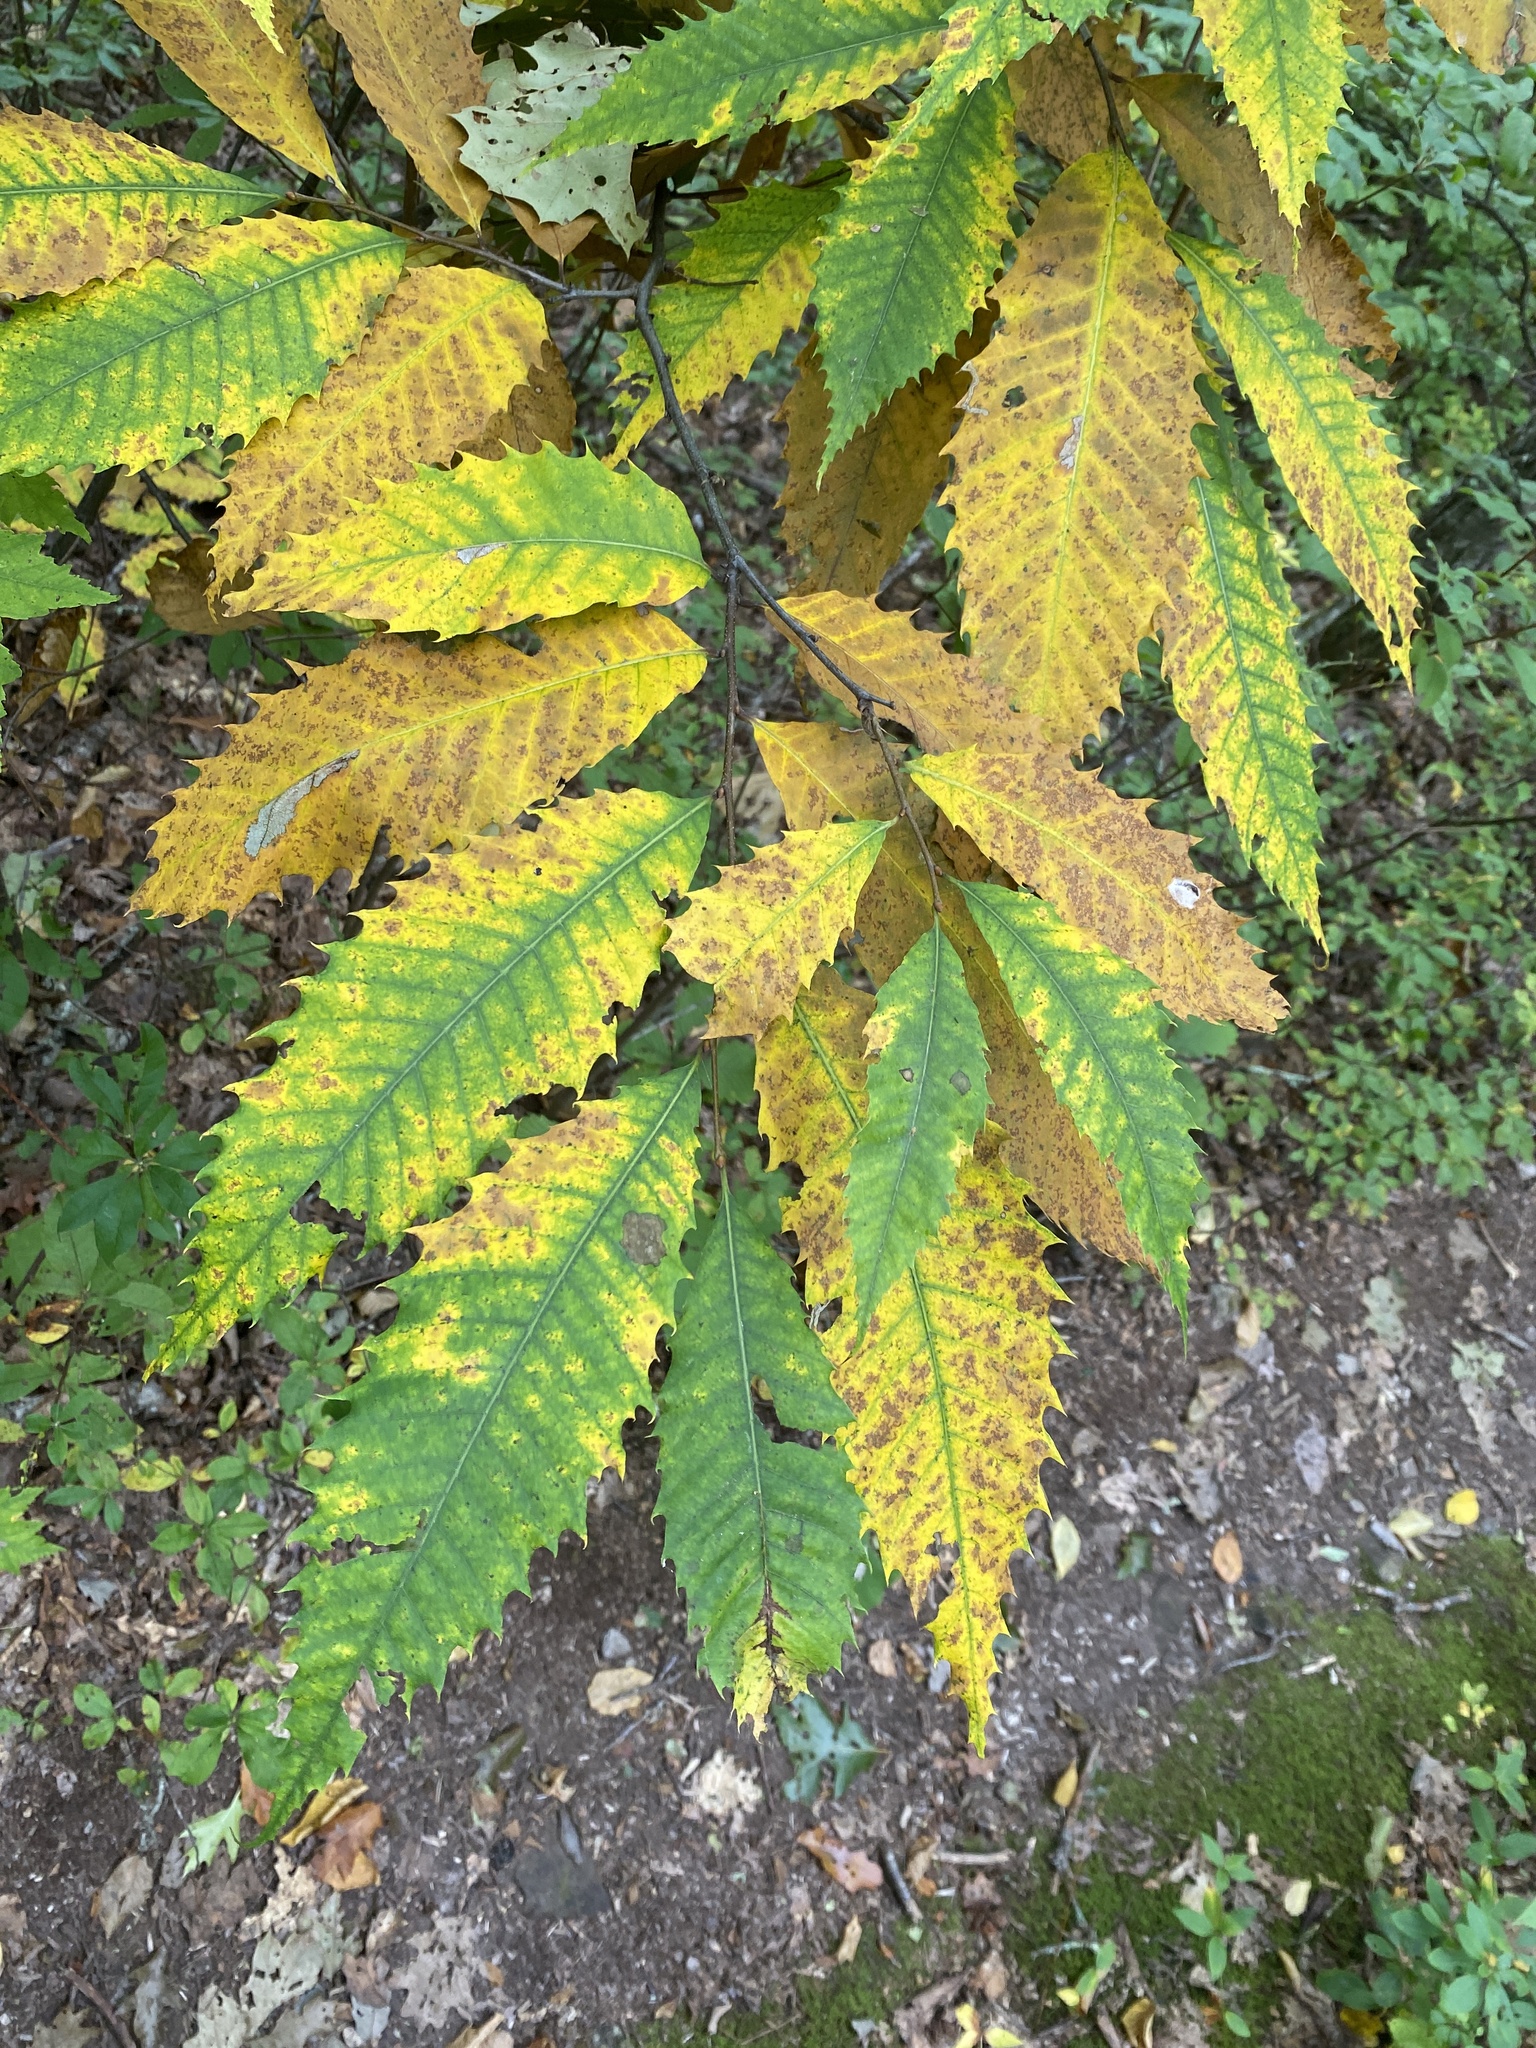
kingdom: Plantae
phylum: Tracheophyta
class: Magnoliopsida
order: Fagales
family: Fagaceae
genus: Castanea
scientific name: Castanea dentata
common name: American chestnut
